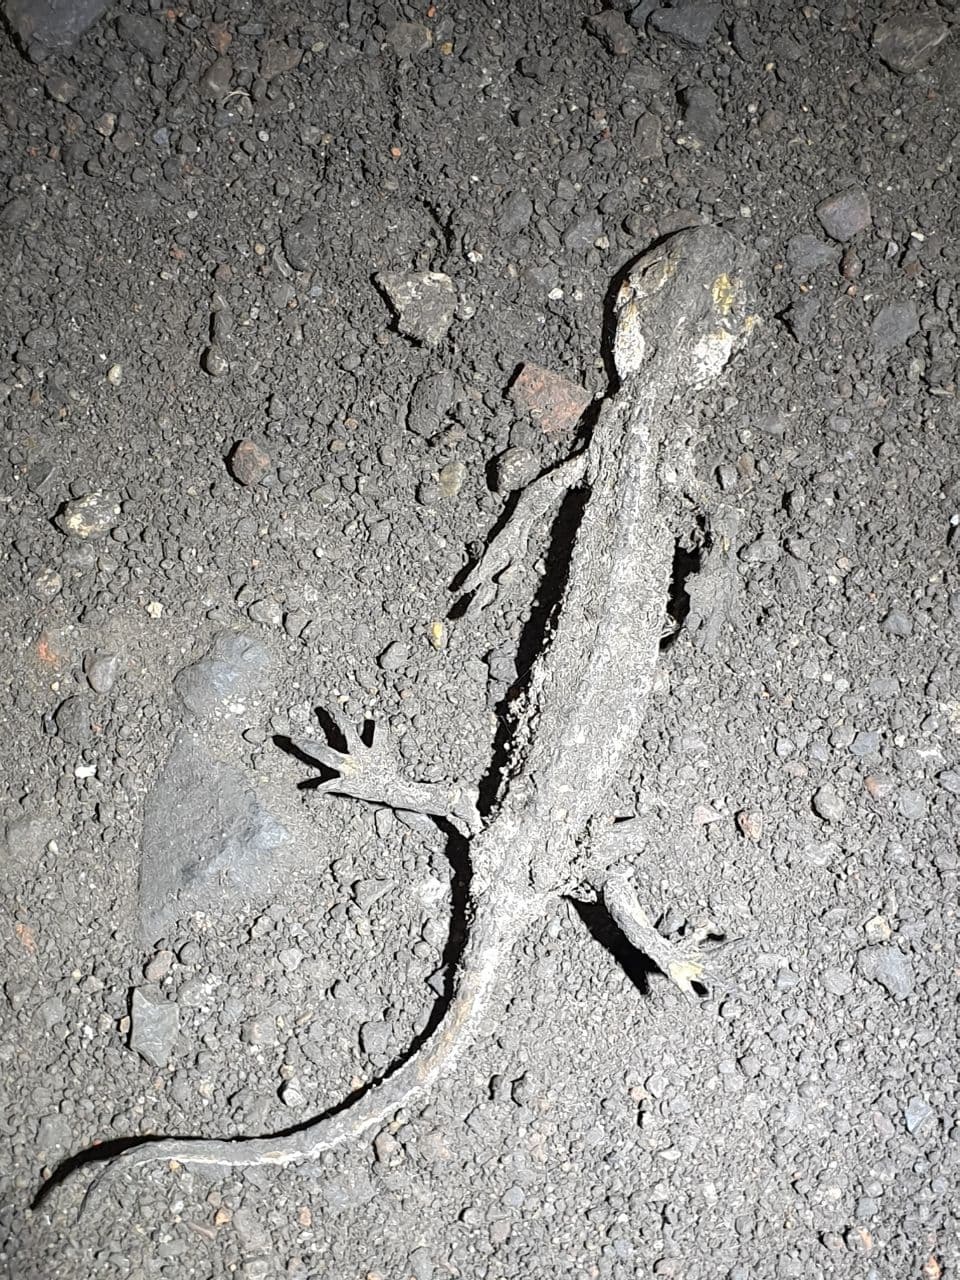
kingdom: Animalia
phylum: Chordata
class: Amphibia
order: Caudata
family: Salamandridae
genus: Salamandra
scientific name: Salamandra salamandra
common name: Fire salamander
